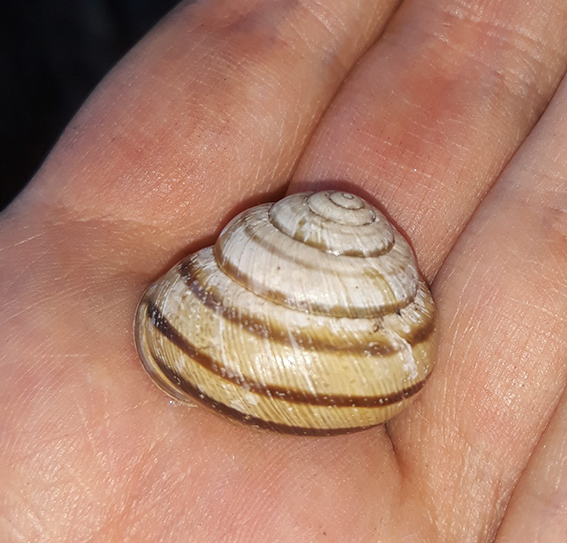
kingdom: Animalia
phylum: Mollusca
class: Gastropoda
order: Stylommatophora
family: Helicidae
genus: Caucasotachea
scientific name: Caucasotachea vindobonensis
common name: European helicid land snail
